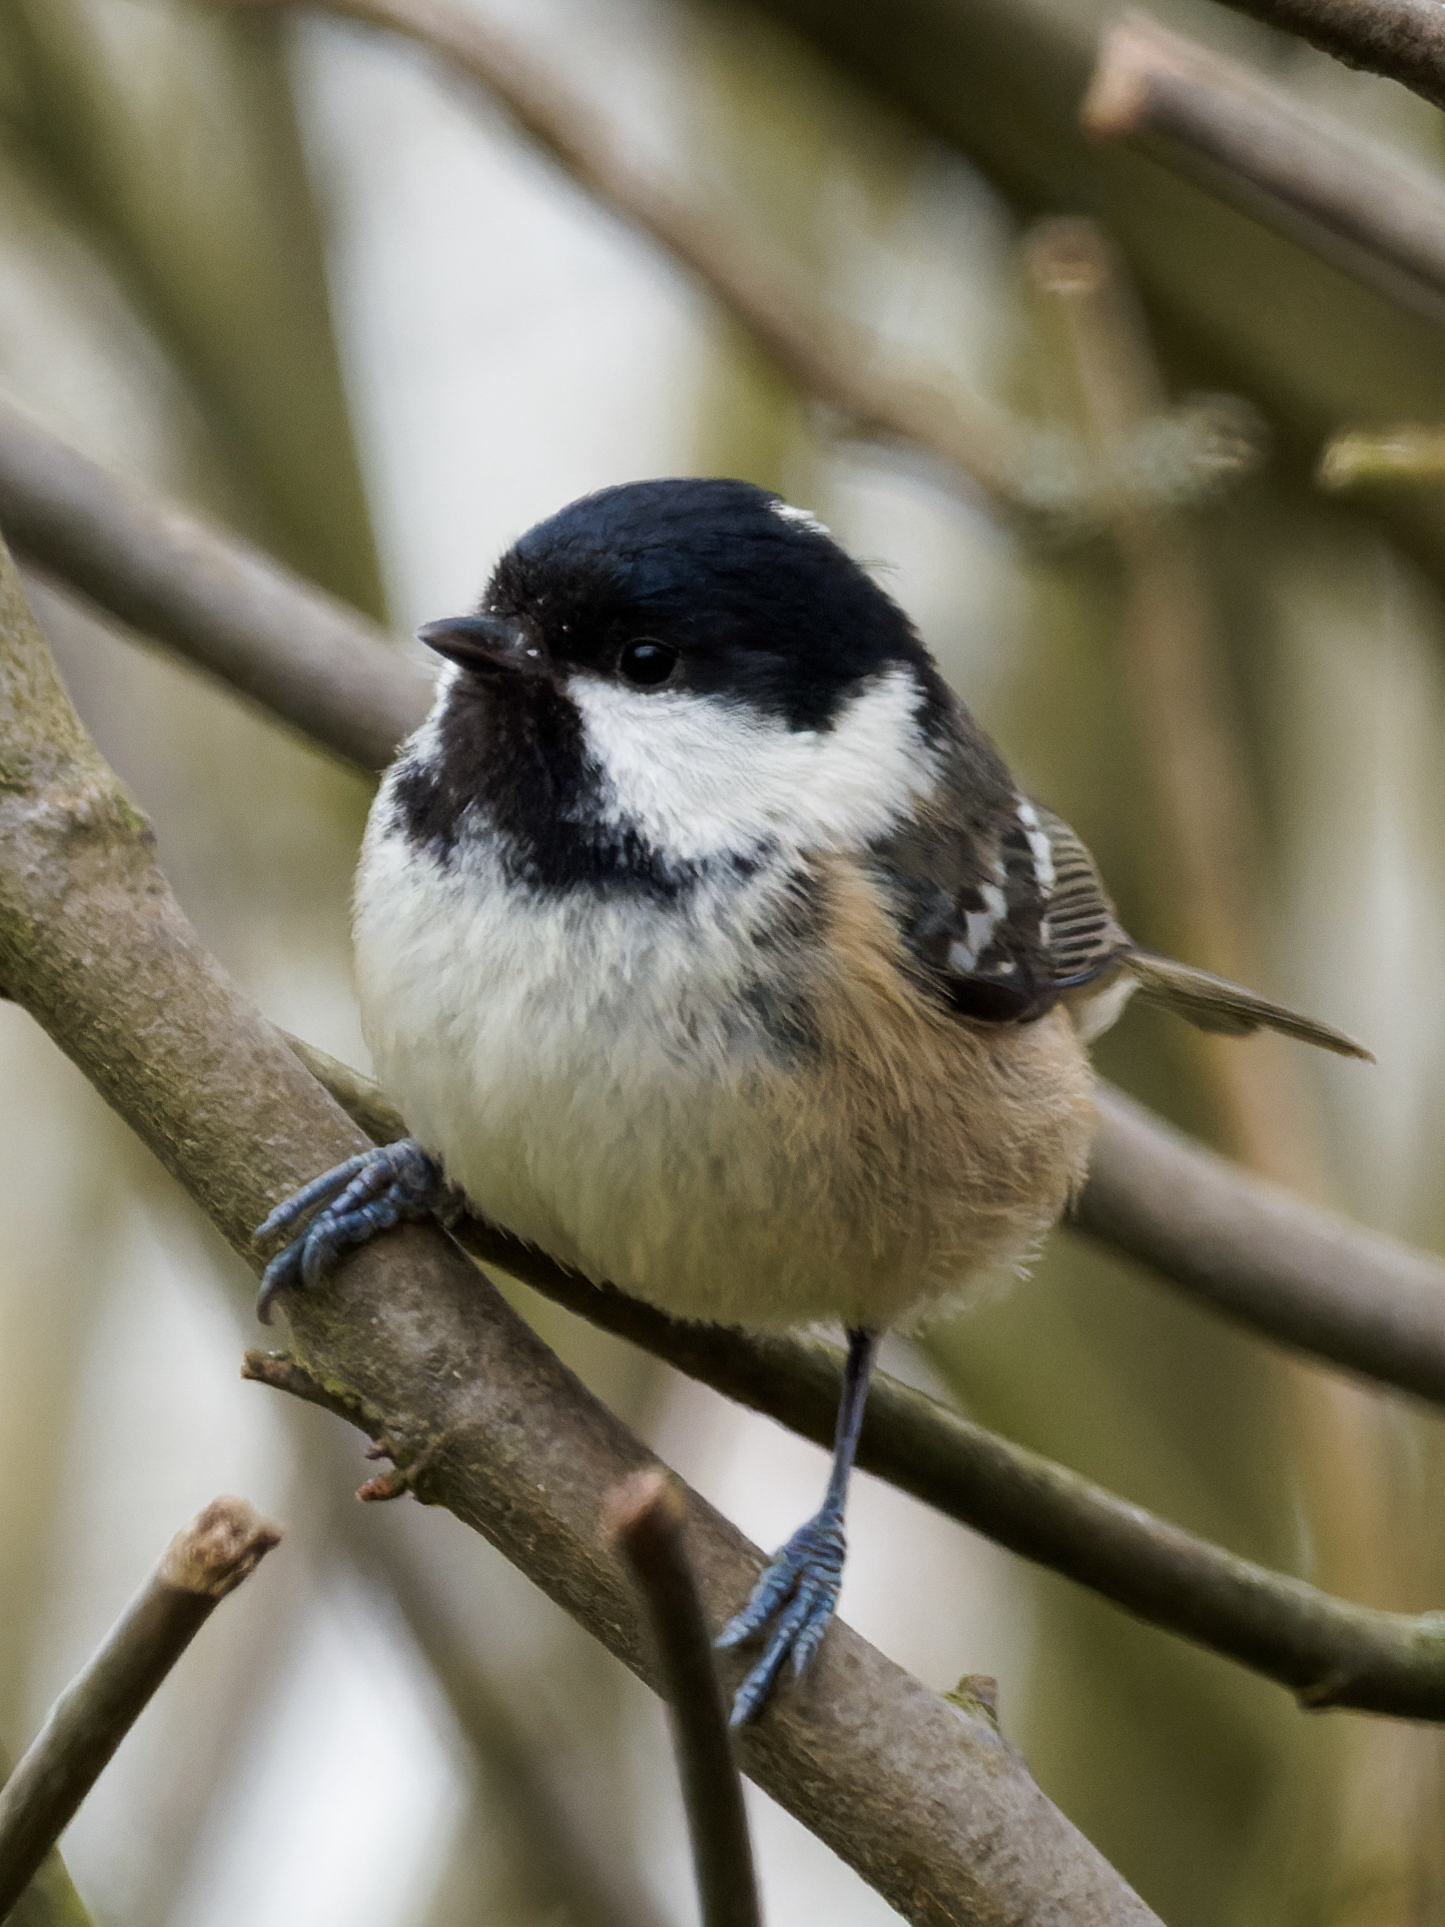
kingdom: Animalia
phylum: Chordata
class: Aves
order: Passeriformes
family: Paridae
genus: Periparus
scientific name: Periparus ater
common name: Coal tit
